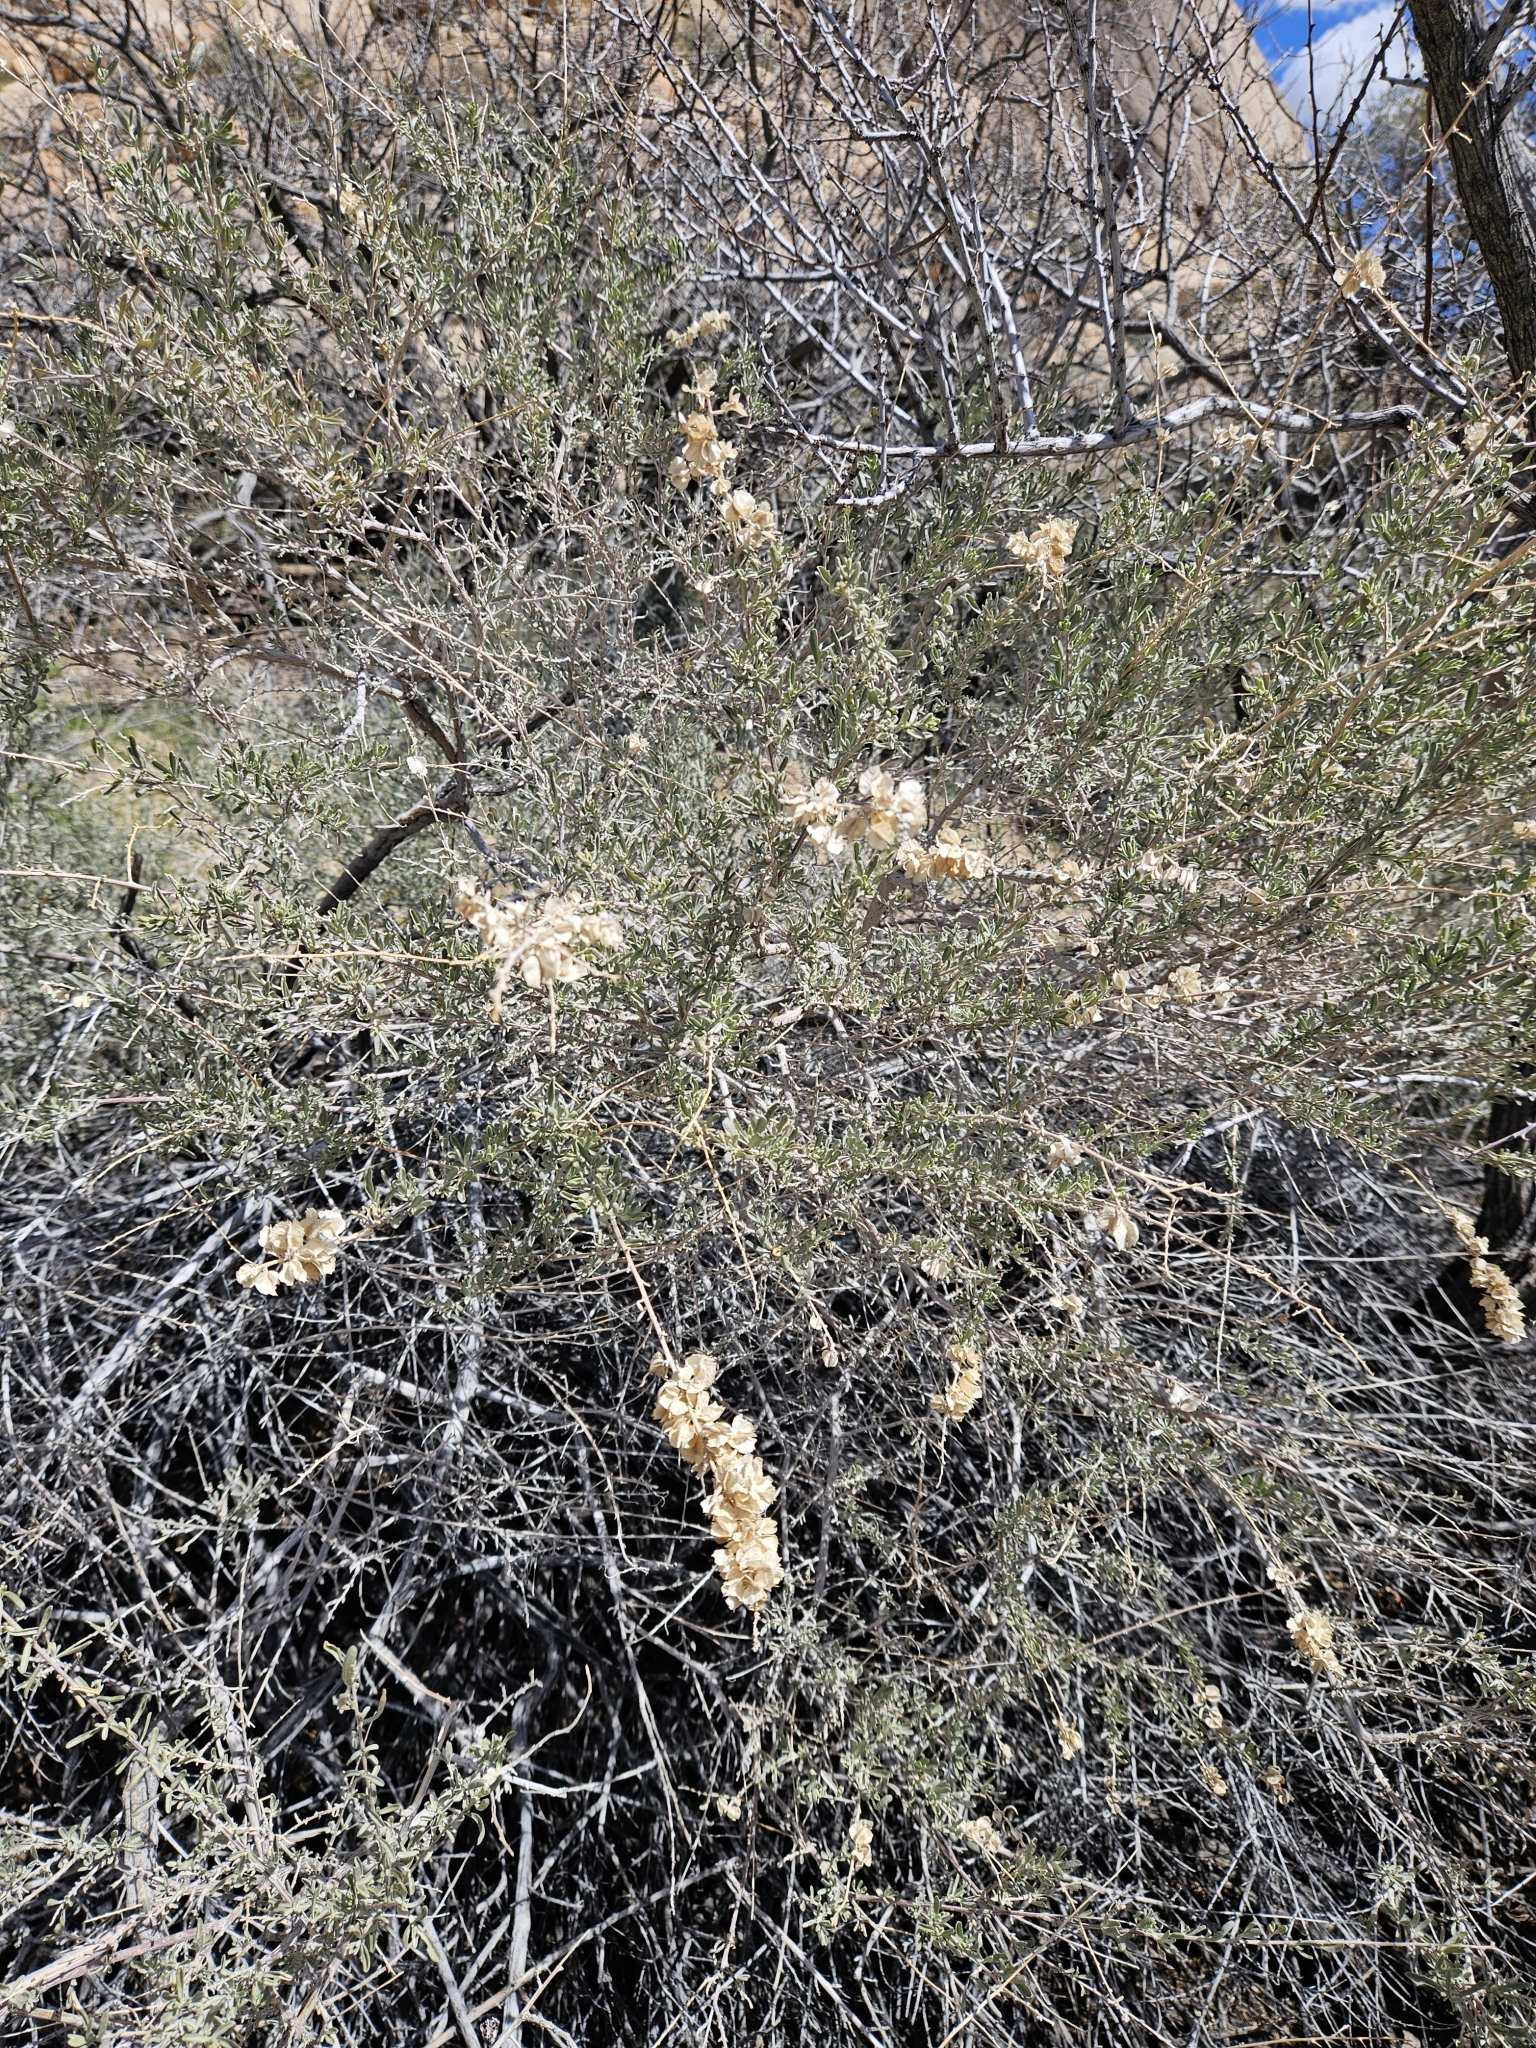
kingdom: Plantae
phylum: Tracheophyta
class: Magnoliopsida
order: Caryophyllales
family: Amaranthaceae
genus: Atriplex
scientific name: Atriplex canescens
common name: Four-wing saltbush
